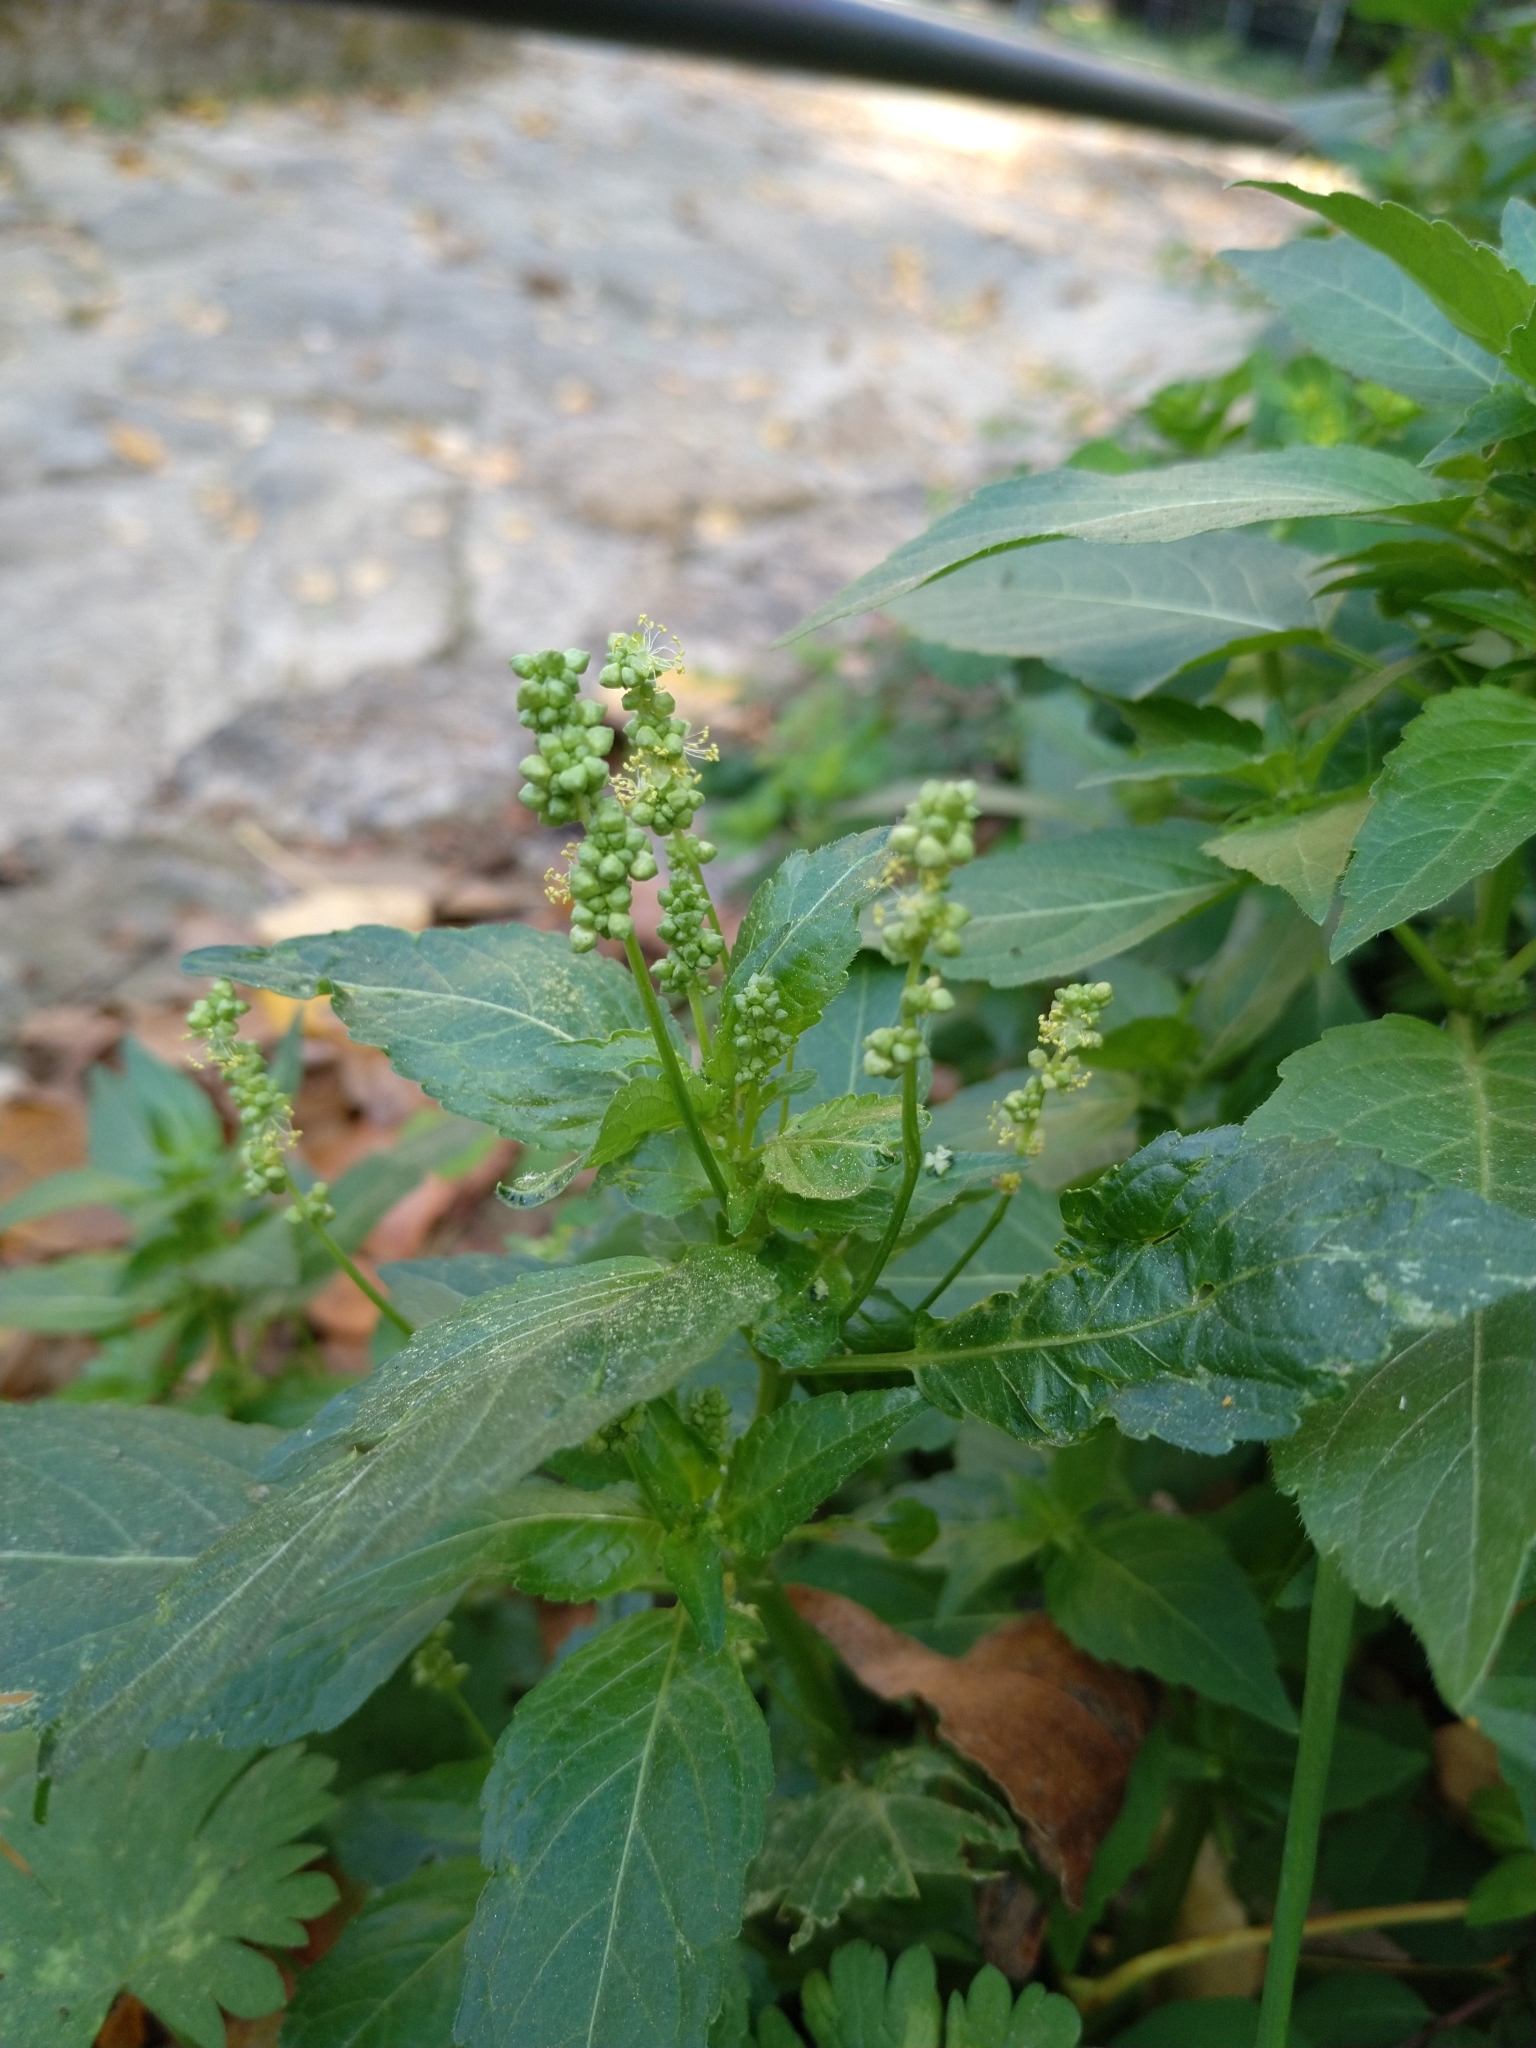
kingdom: Plantae
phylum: Tracheophyta
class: Magnoliopsida
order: Malpighiales
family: Euphorbiaceae
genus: Mercurialis
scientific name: Mercurialis annua
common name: Annual mercury
